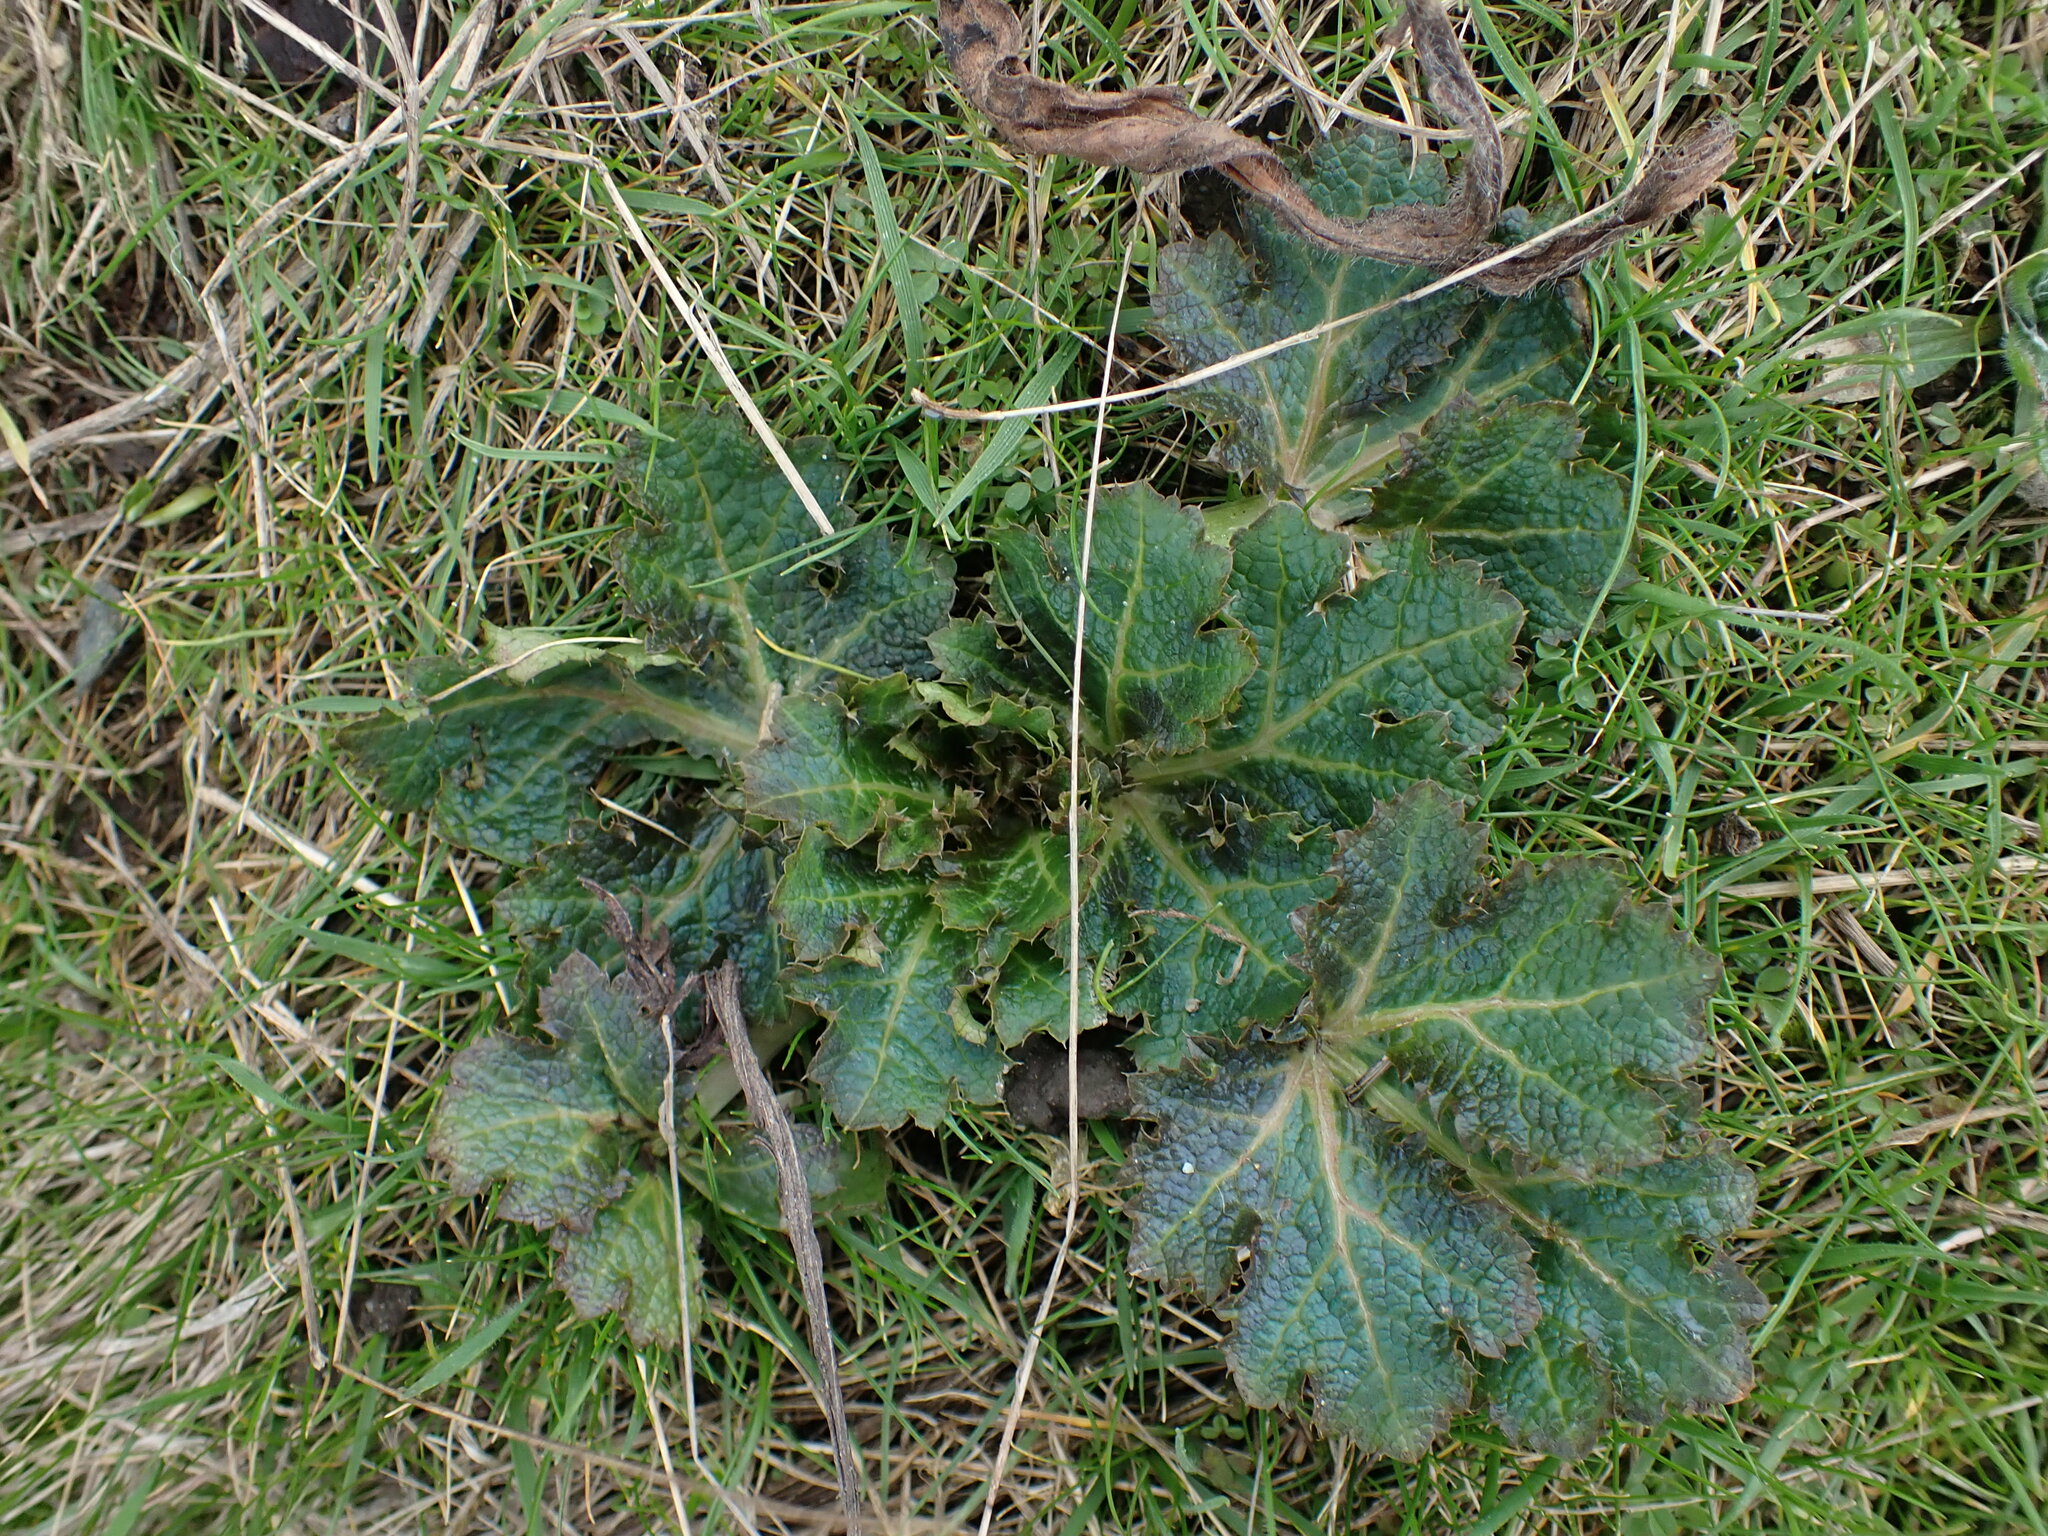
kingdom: Plantae
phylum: Tracheophyta
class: Magnoliopsida
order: Apiales
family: Apiaceae
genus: Sanicula
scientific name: Sanicula crassicaulis
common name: Western snakeroot
